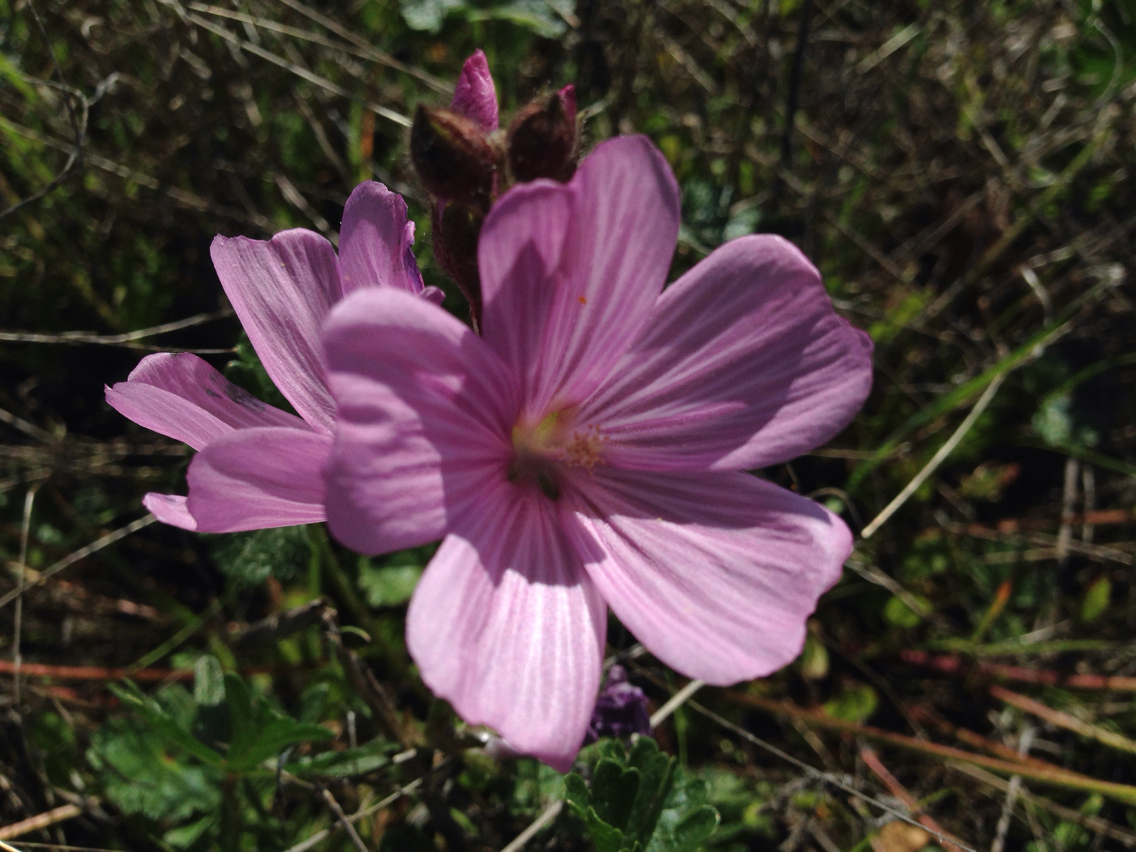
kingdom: Plantae
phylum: Tracheophyta
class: Magnoliopsida
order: Malvales
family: Malvaceae
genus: Sidalcea
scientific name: Sidalcea malviflora
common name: Greek mallow
